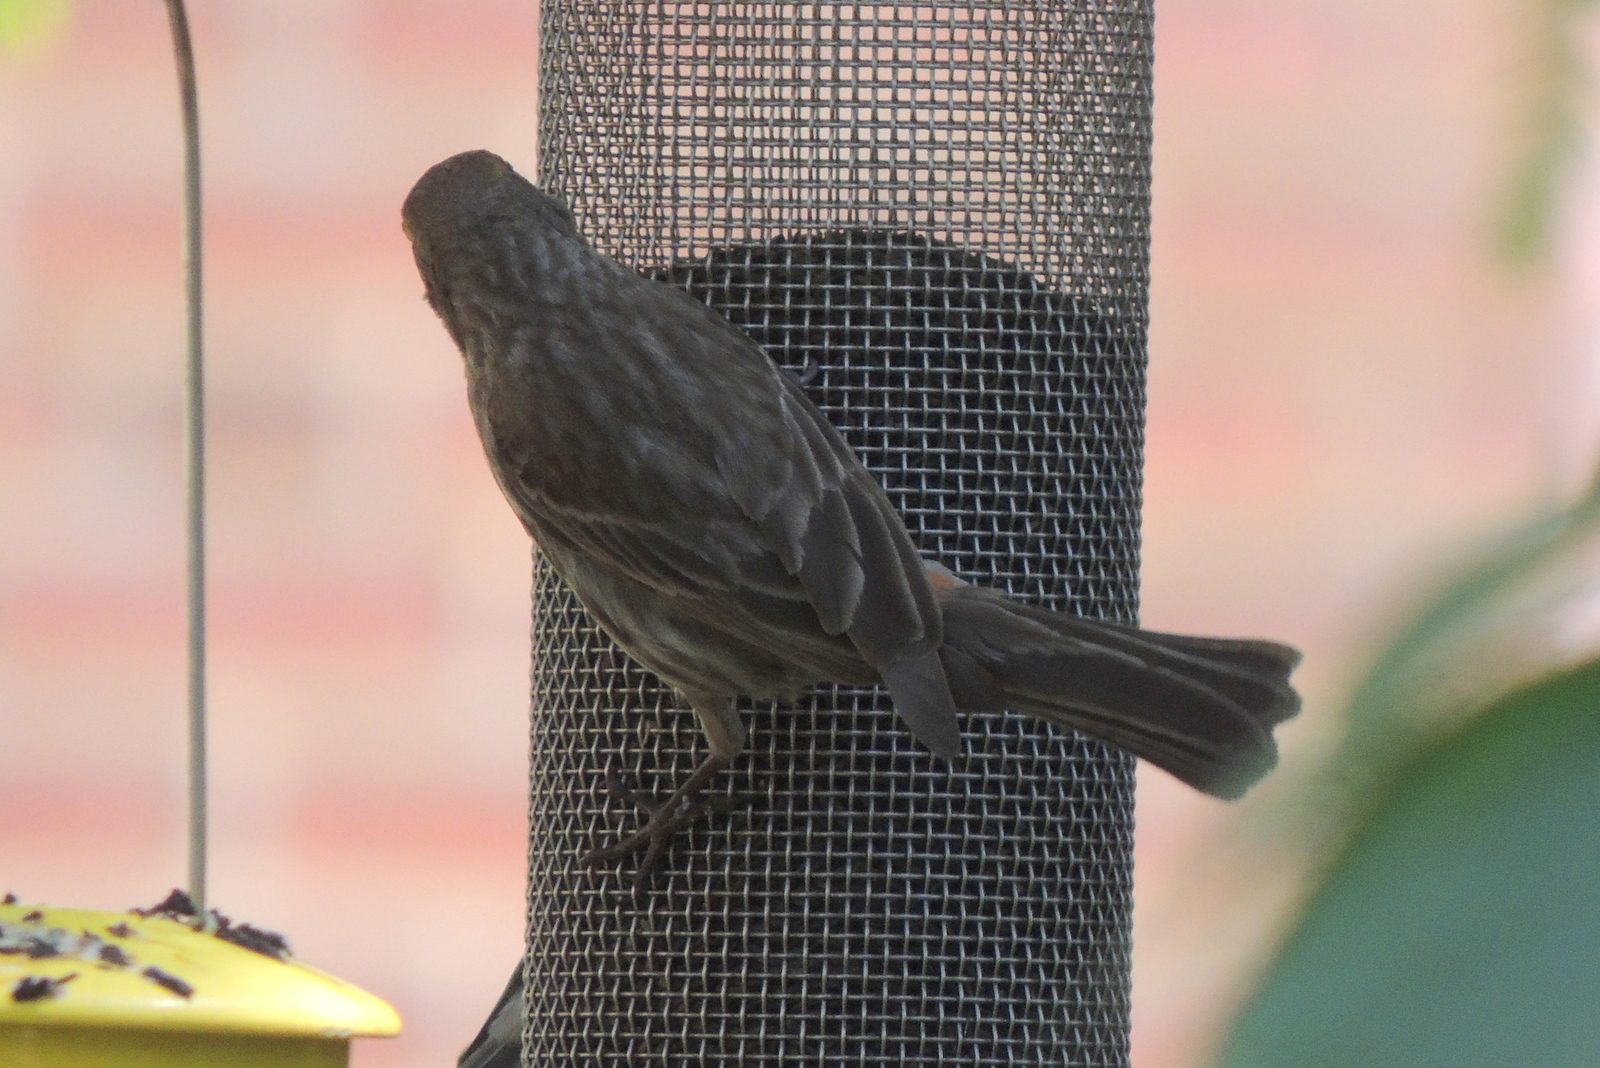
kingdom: Animalia
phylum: Chordata
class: Aves
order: Passeriformes
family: Fringillidae
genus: Haemorhous
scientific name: Haemorhous mexicanus
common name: House finch
